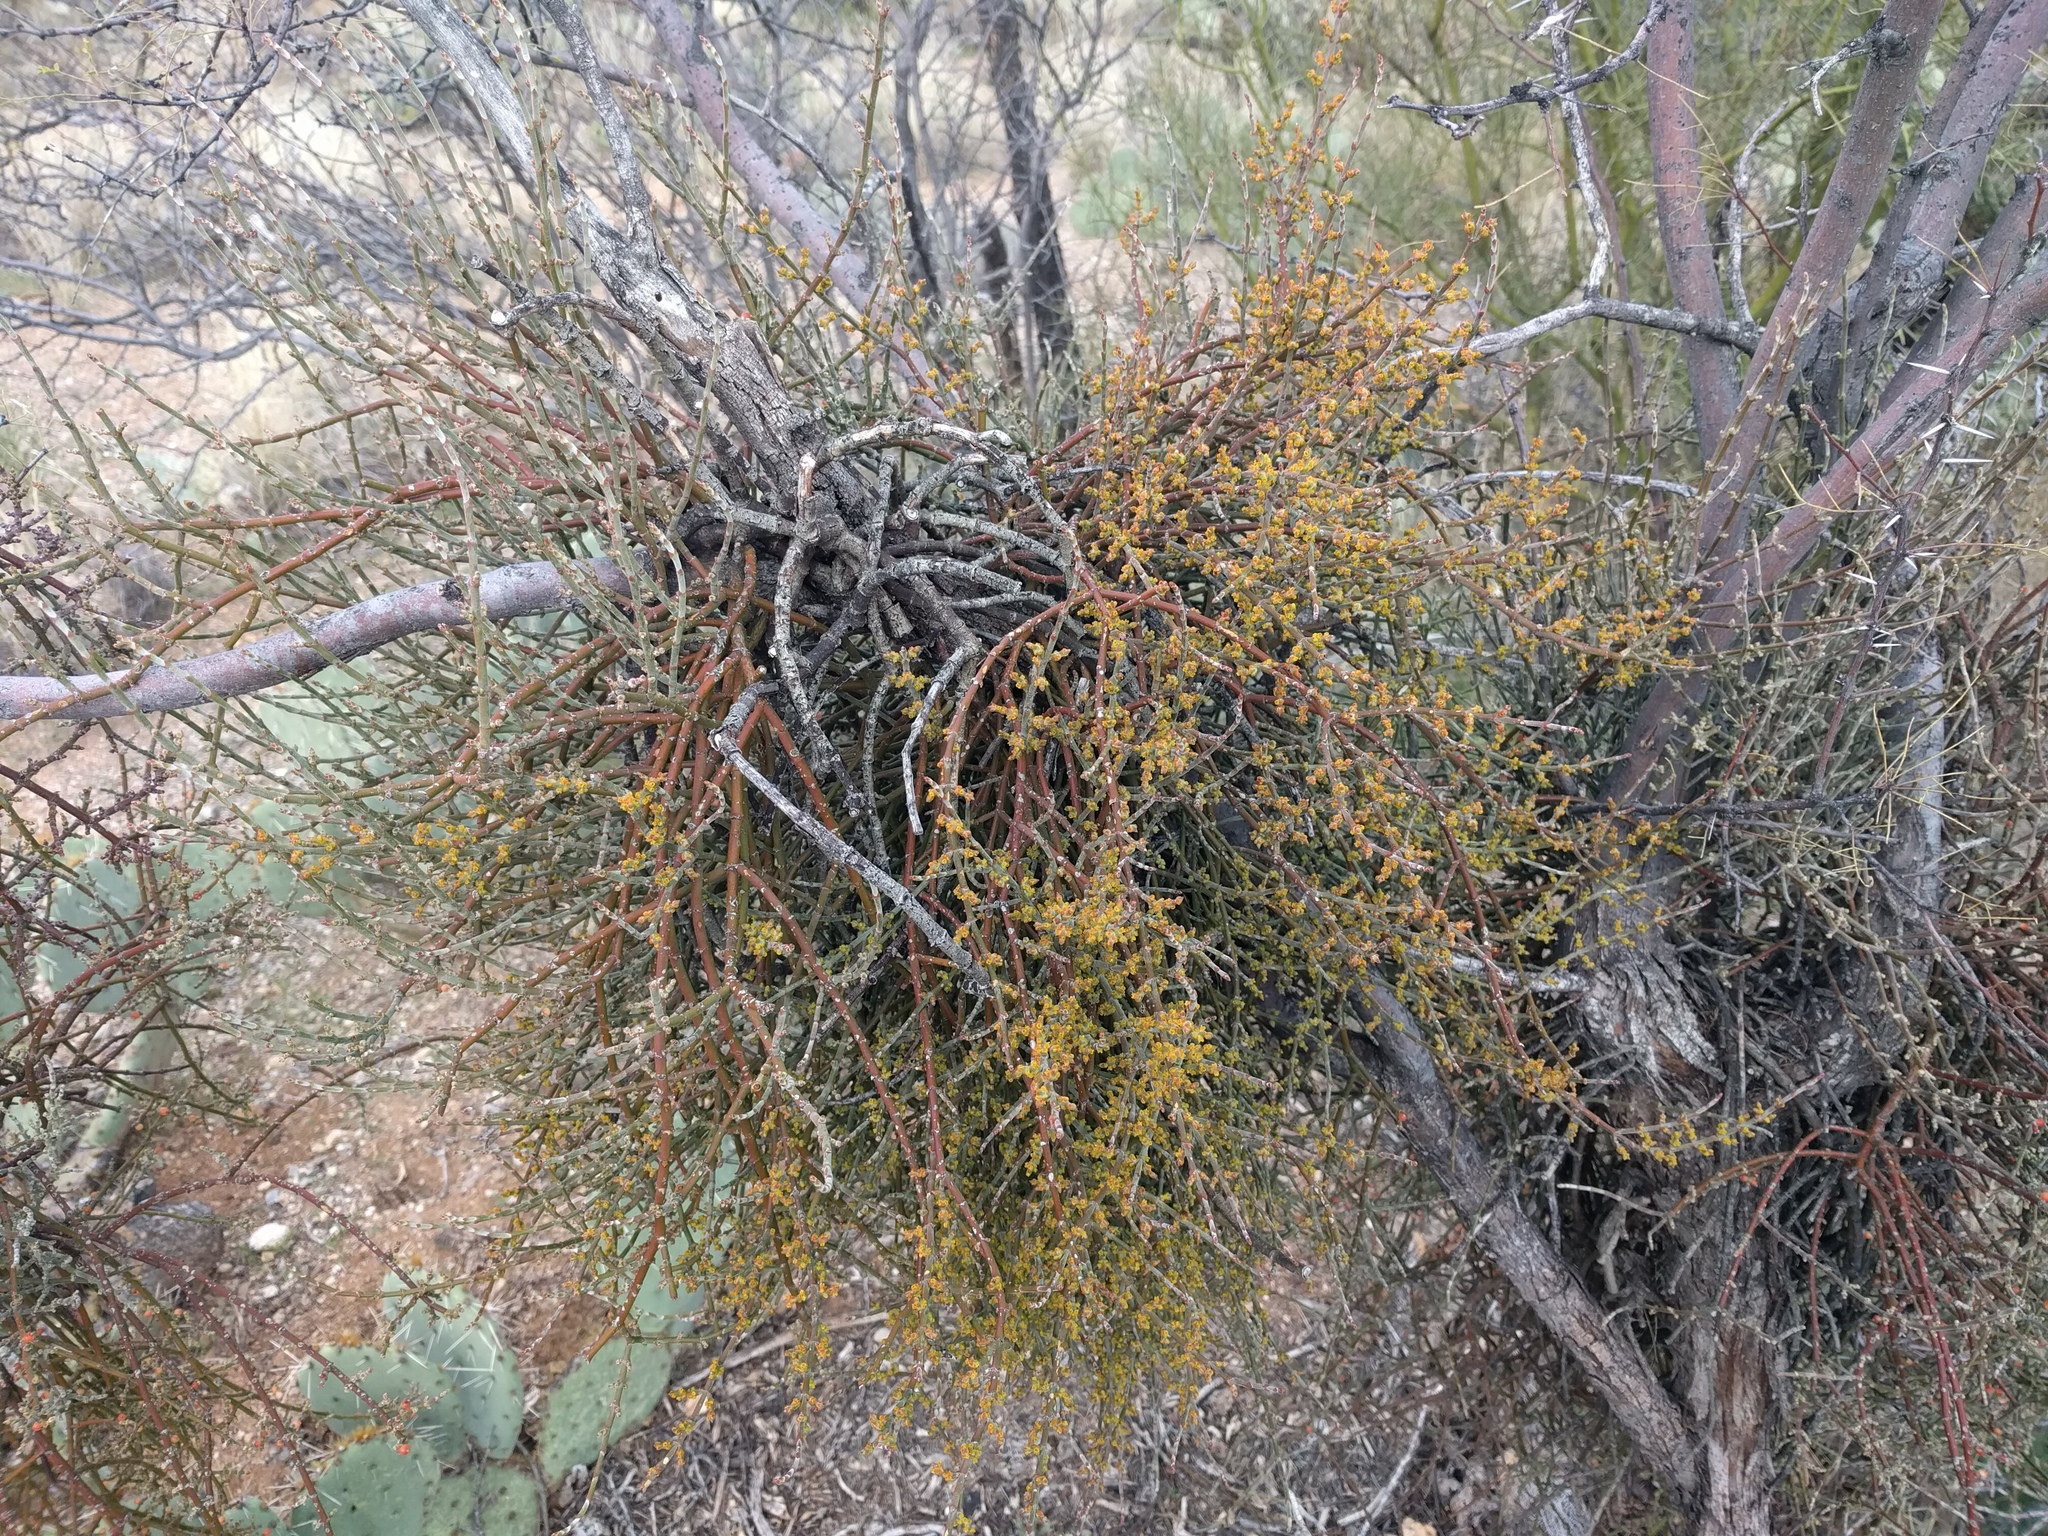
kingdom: Plantae
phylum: Tracheophyta
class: Magnoliopsida
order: Santalales
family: Viscaceae
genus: Phoradendron
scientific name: Phoradendron californicum
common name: Acacia mistletoe
